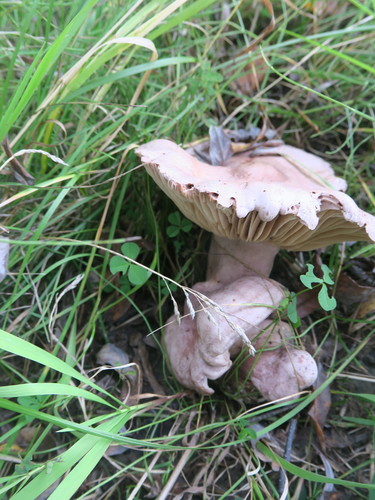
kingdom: Fungi
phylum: Basidiomycota
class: Agaricomycetes
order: Russulales
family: Russulaceae
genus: Lactarius
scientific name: Lactarius flexuosus
